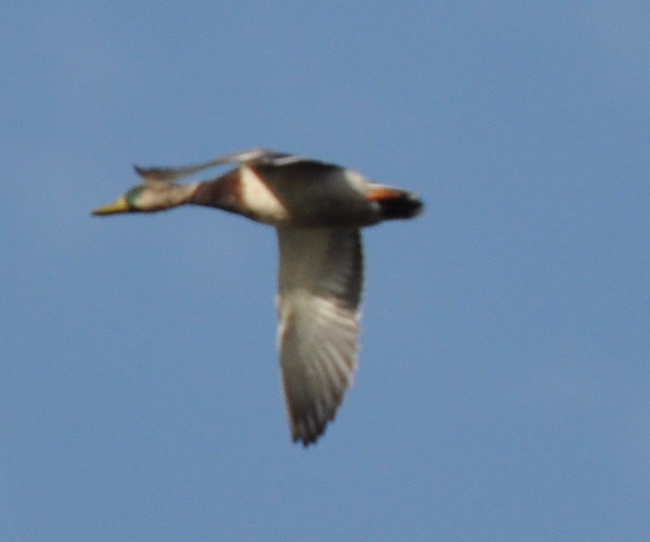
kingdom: Animalia
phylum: Chordata
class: Aves
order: Anseriformes
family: Anatidae
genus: Anas
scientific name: Anas platyrhynchos
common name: Mallard
